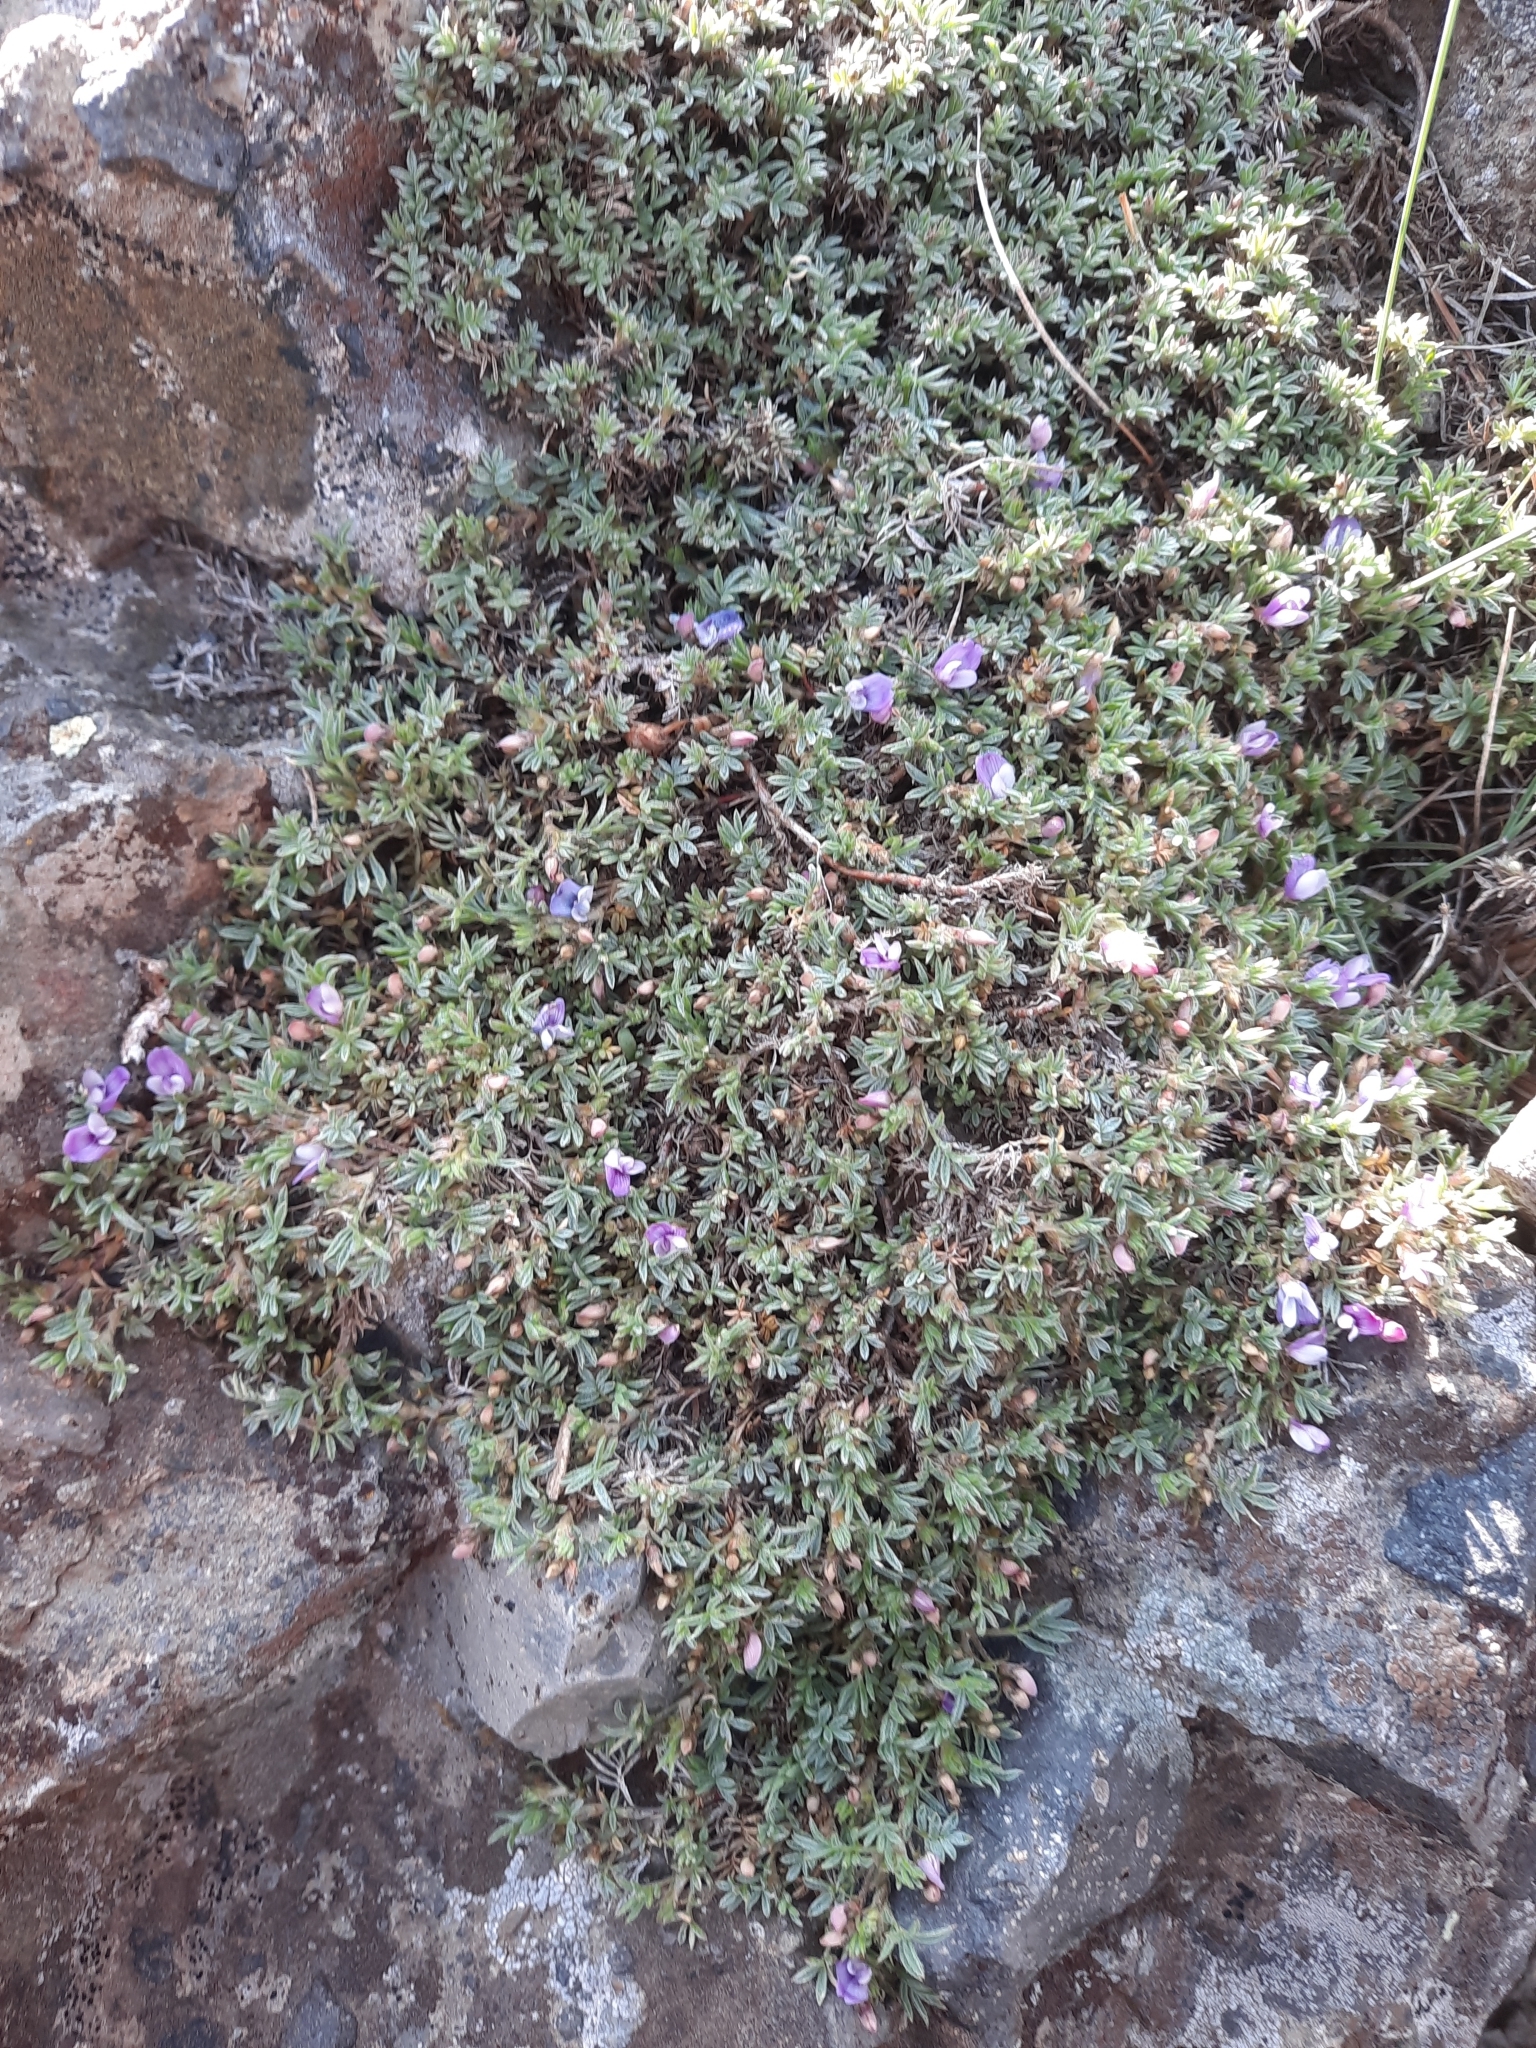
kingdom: Plantae
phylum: Tracheophyta
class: Magnoliopsida
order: Fabales
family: Fabaceae
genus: Astragalus
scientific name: Astragalus kentrophyta
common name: Prickly milk-vetch
